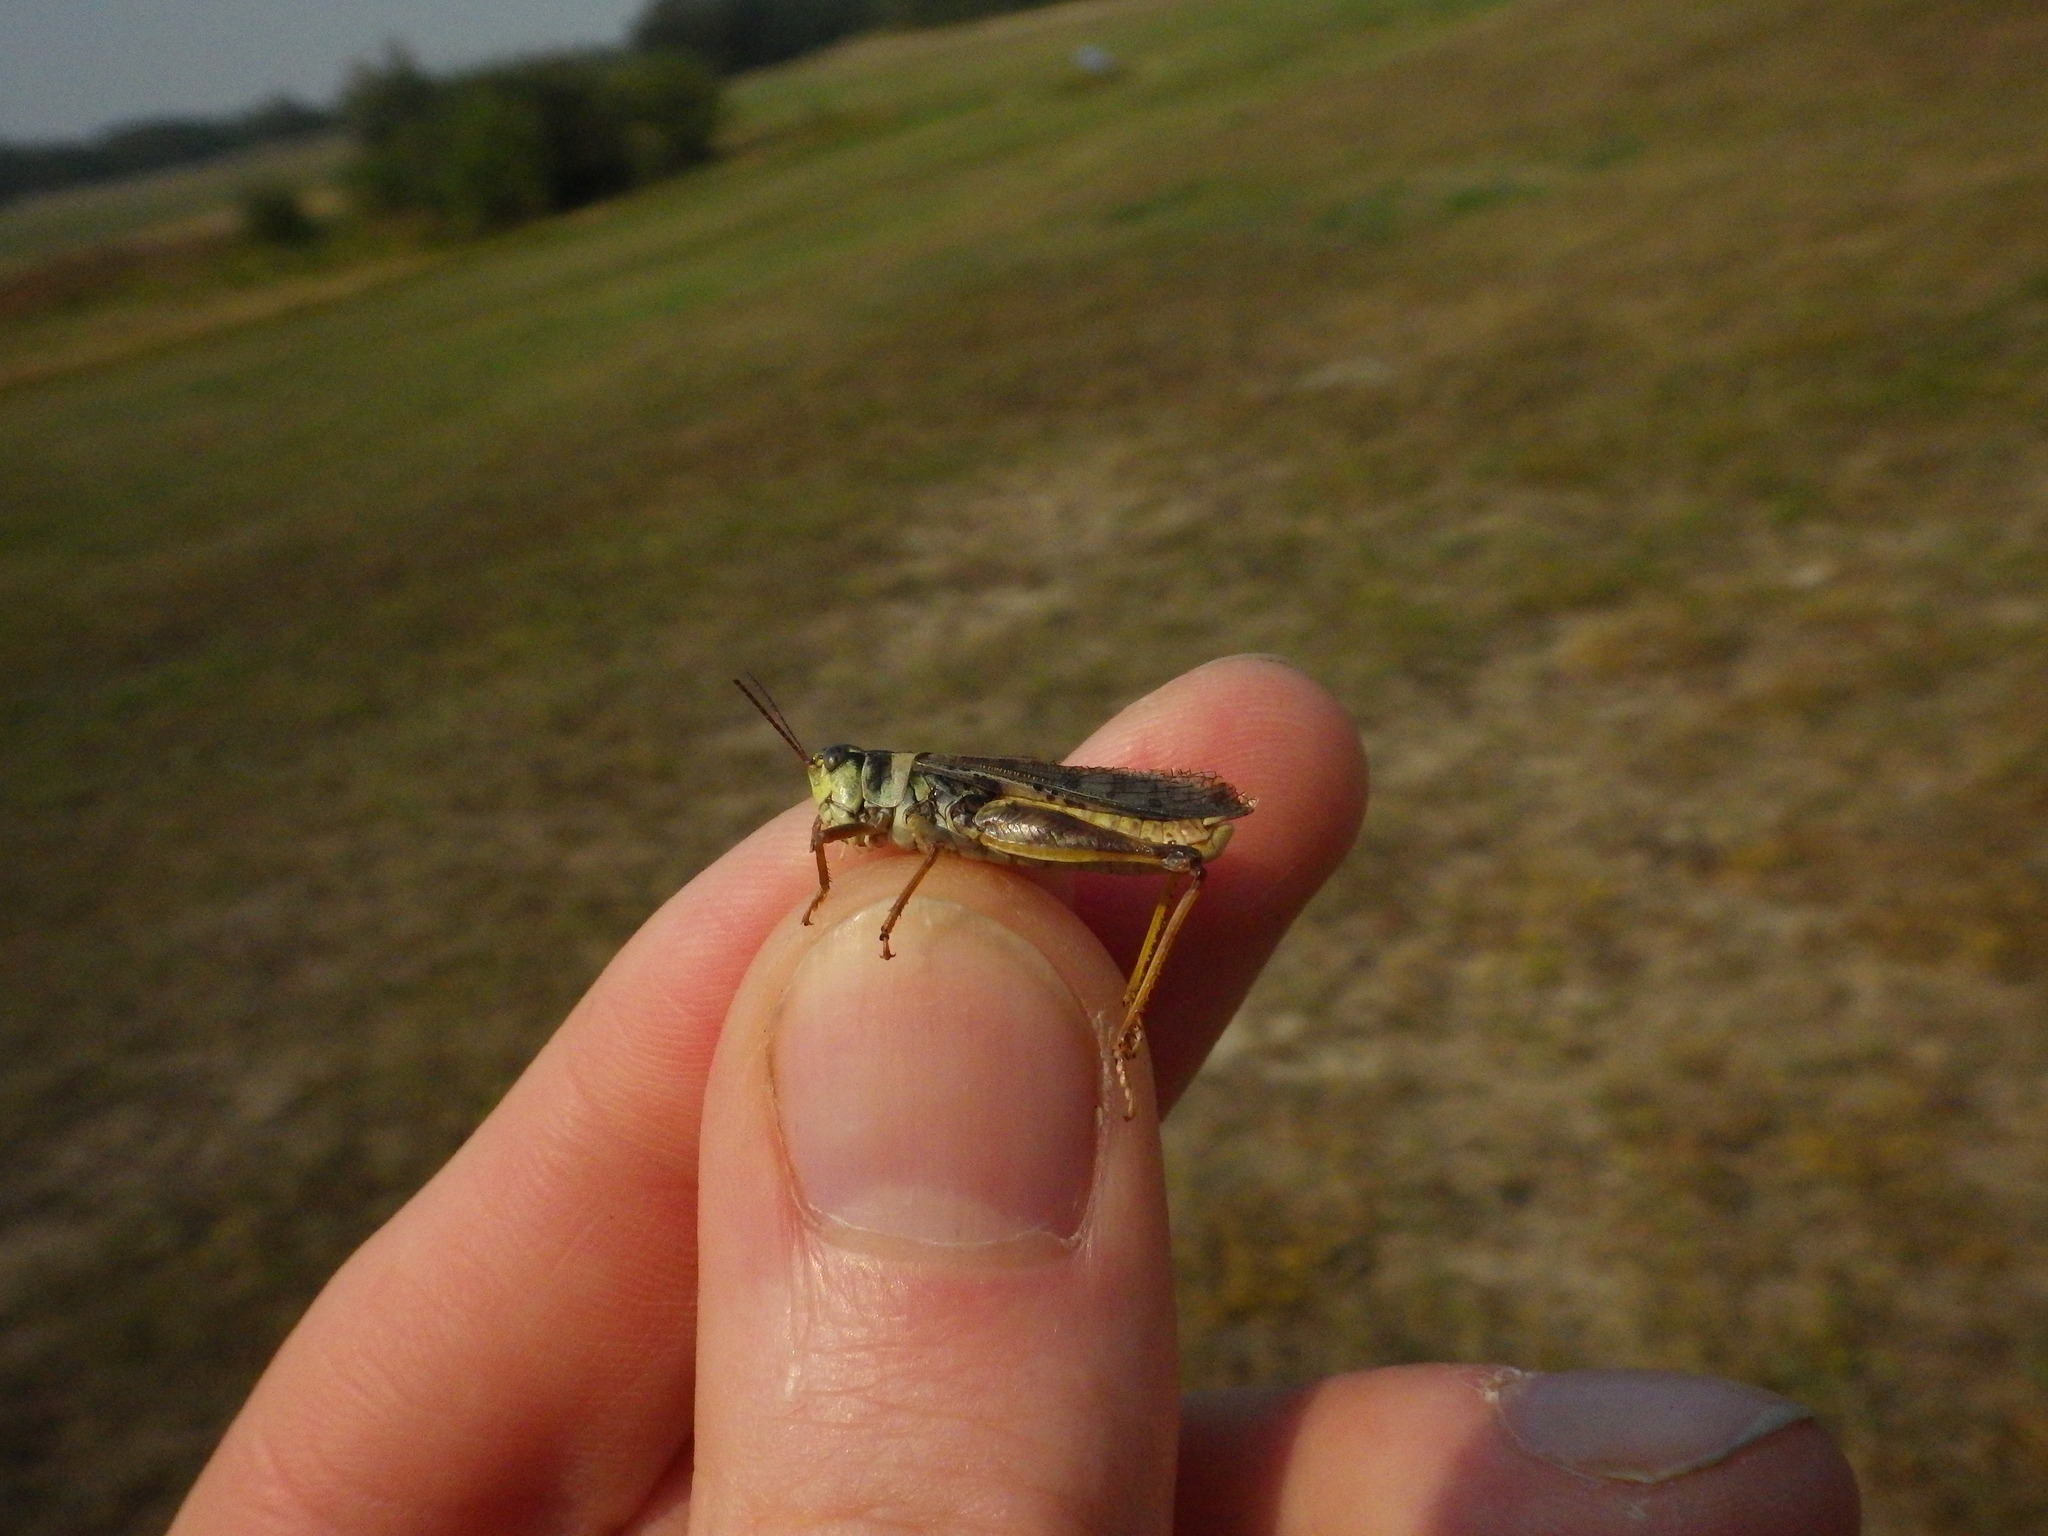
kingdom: Animalia
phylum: Arthropoda
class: Insecta
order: Orthoptera
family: Acrididae
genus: Camnula
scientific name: Camnula pellucida
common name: Clear-winged grasshopper
